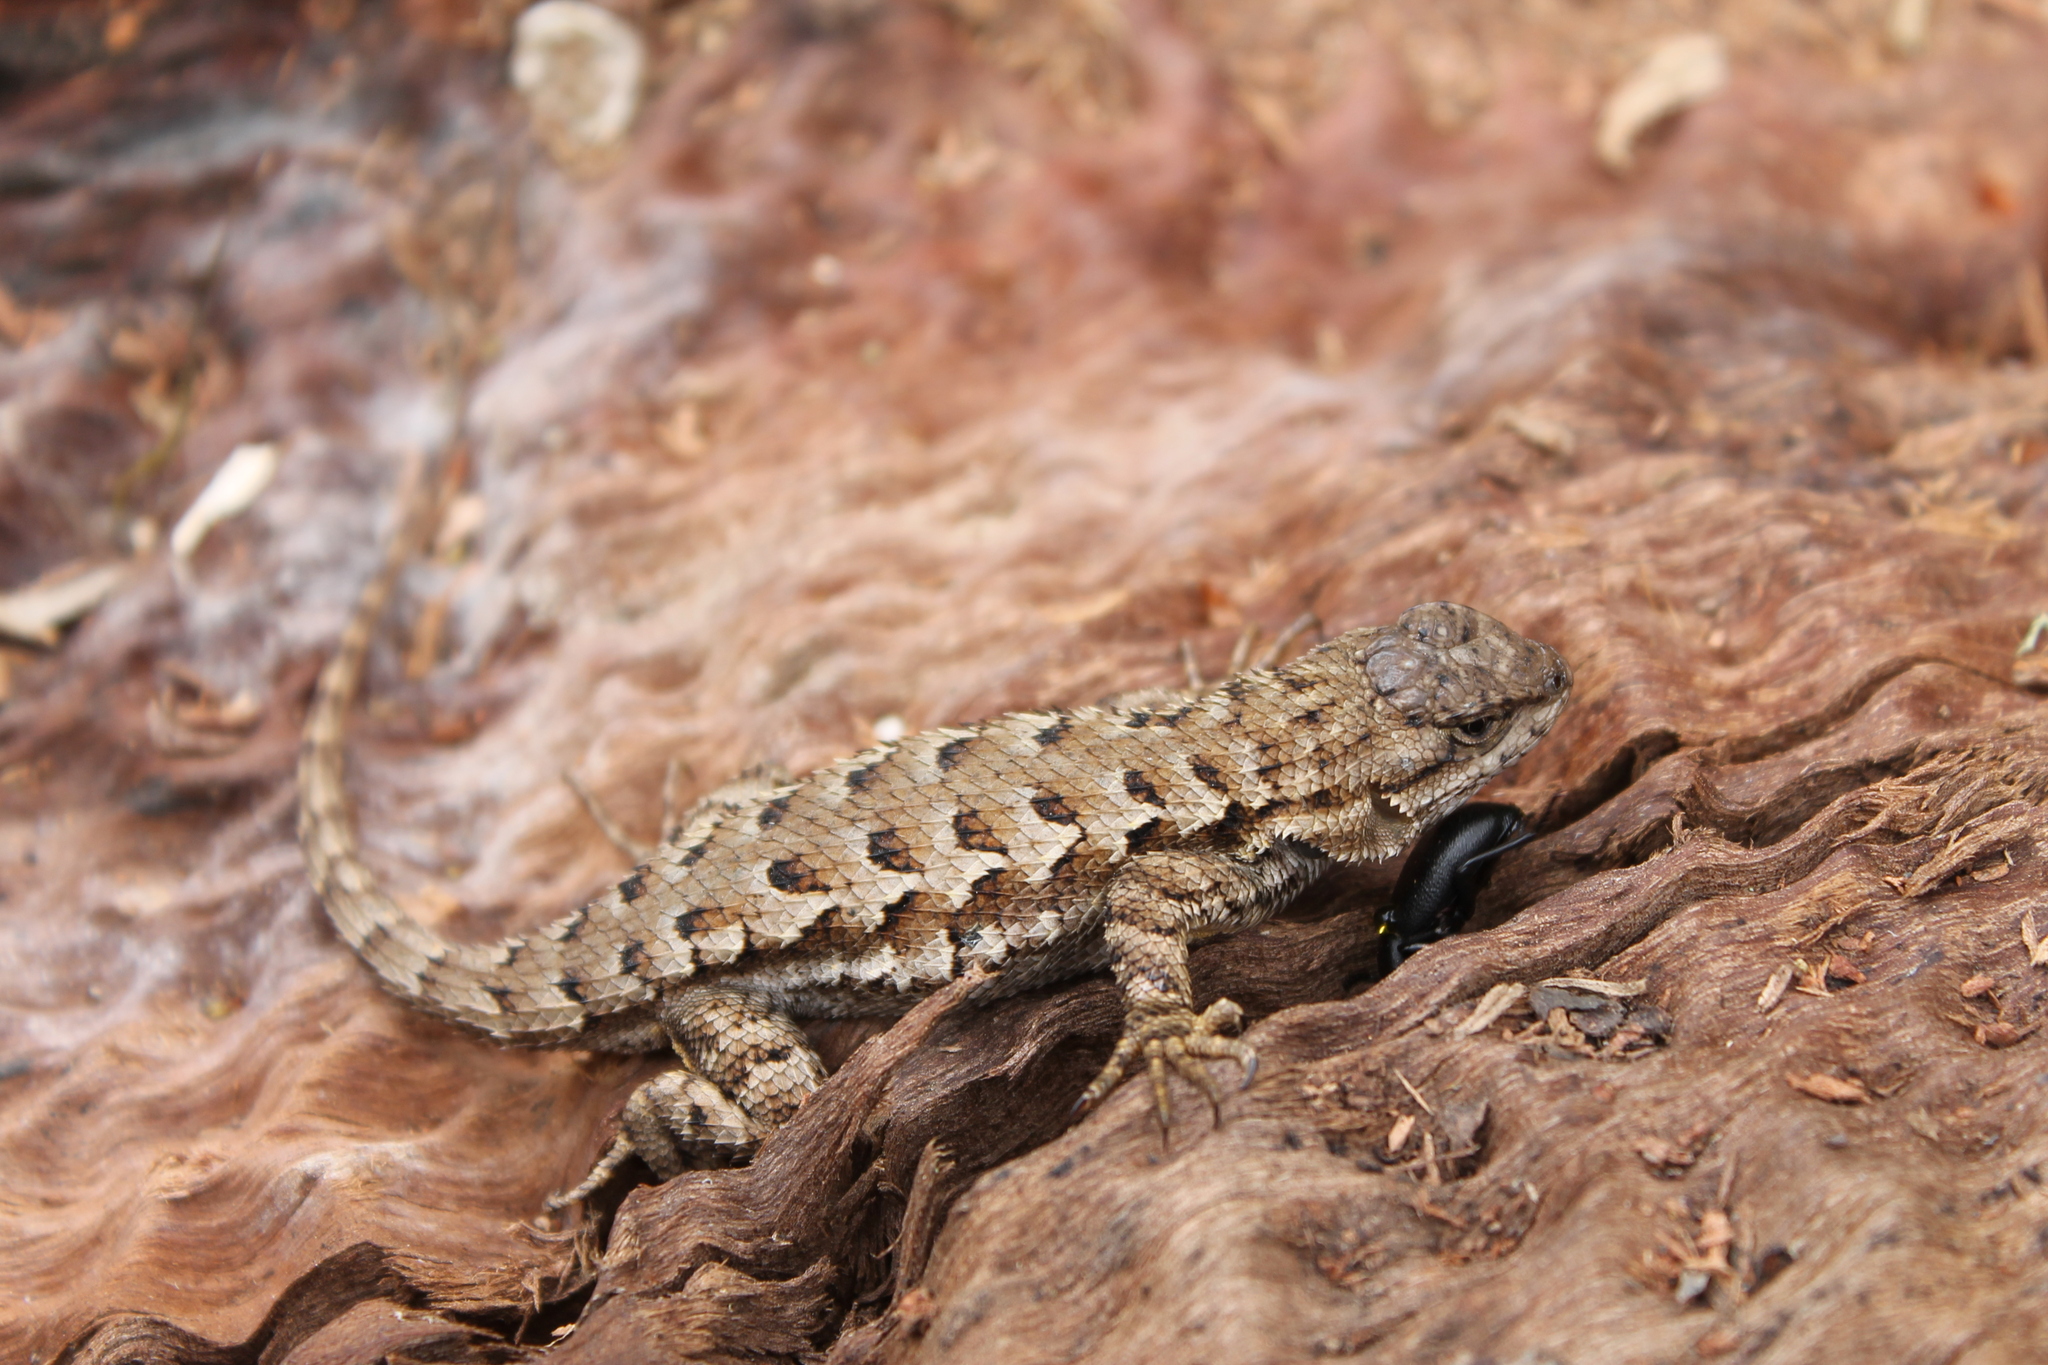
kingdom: Animalia
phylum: Chordata
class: Squamata
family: Phrynosomatidae
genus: Sceloporus
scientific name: Sceloporus occidentalis
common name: Western fence lizard
